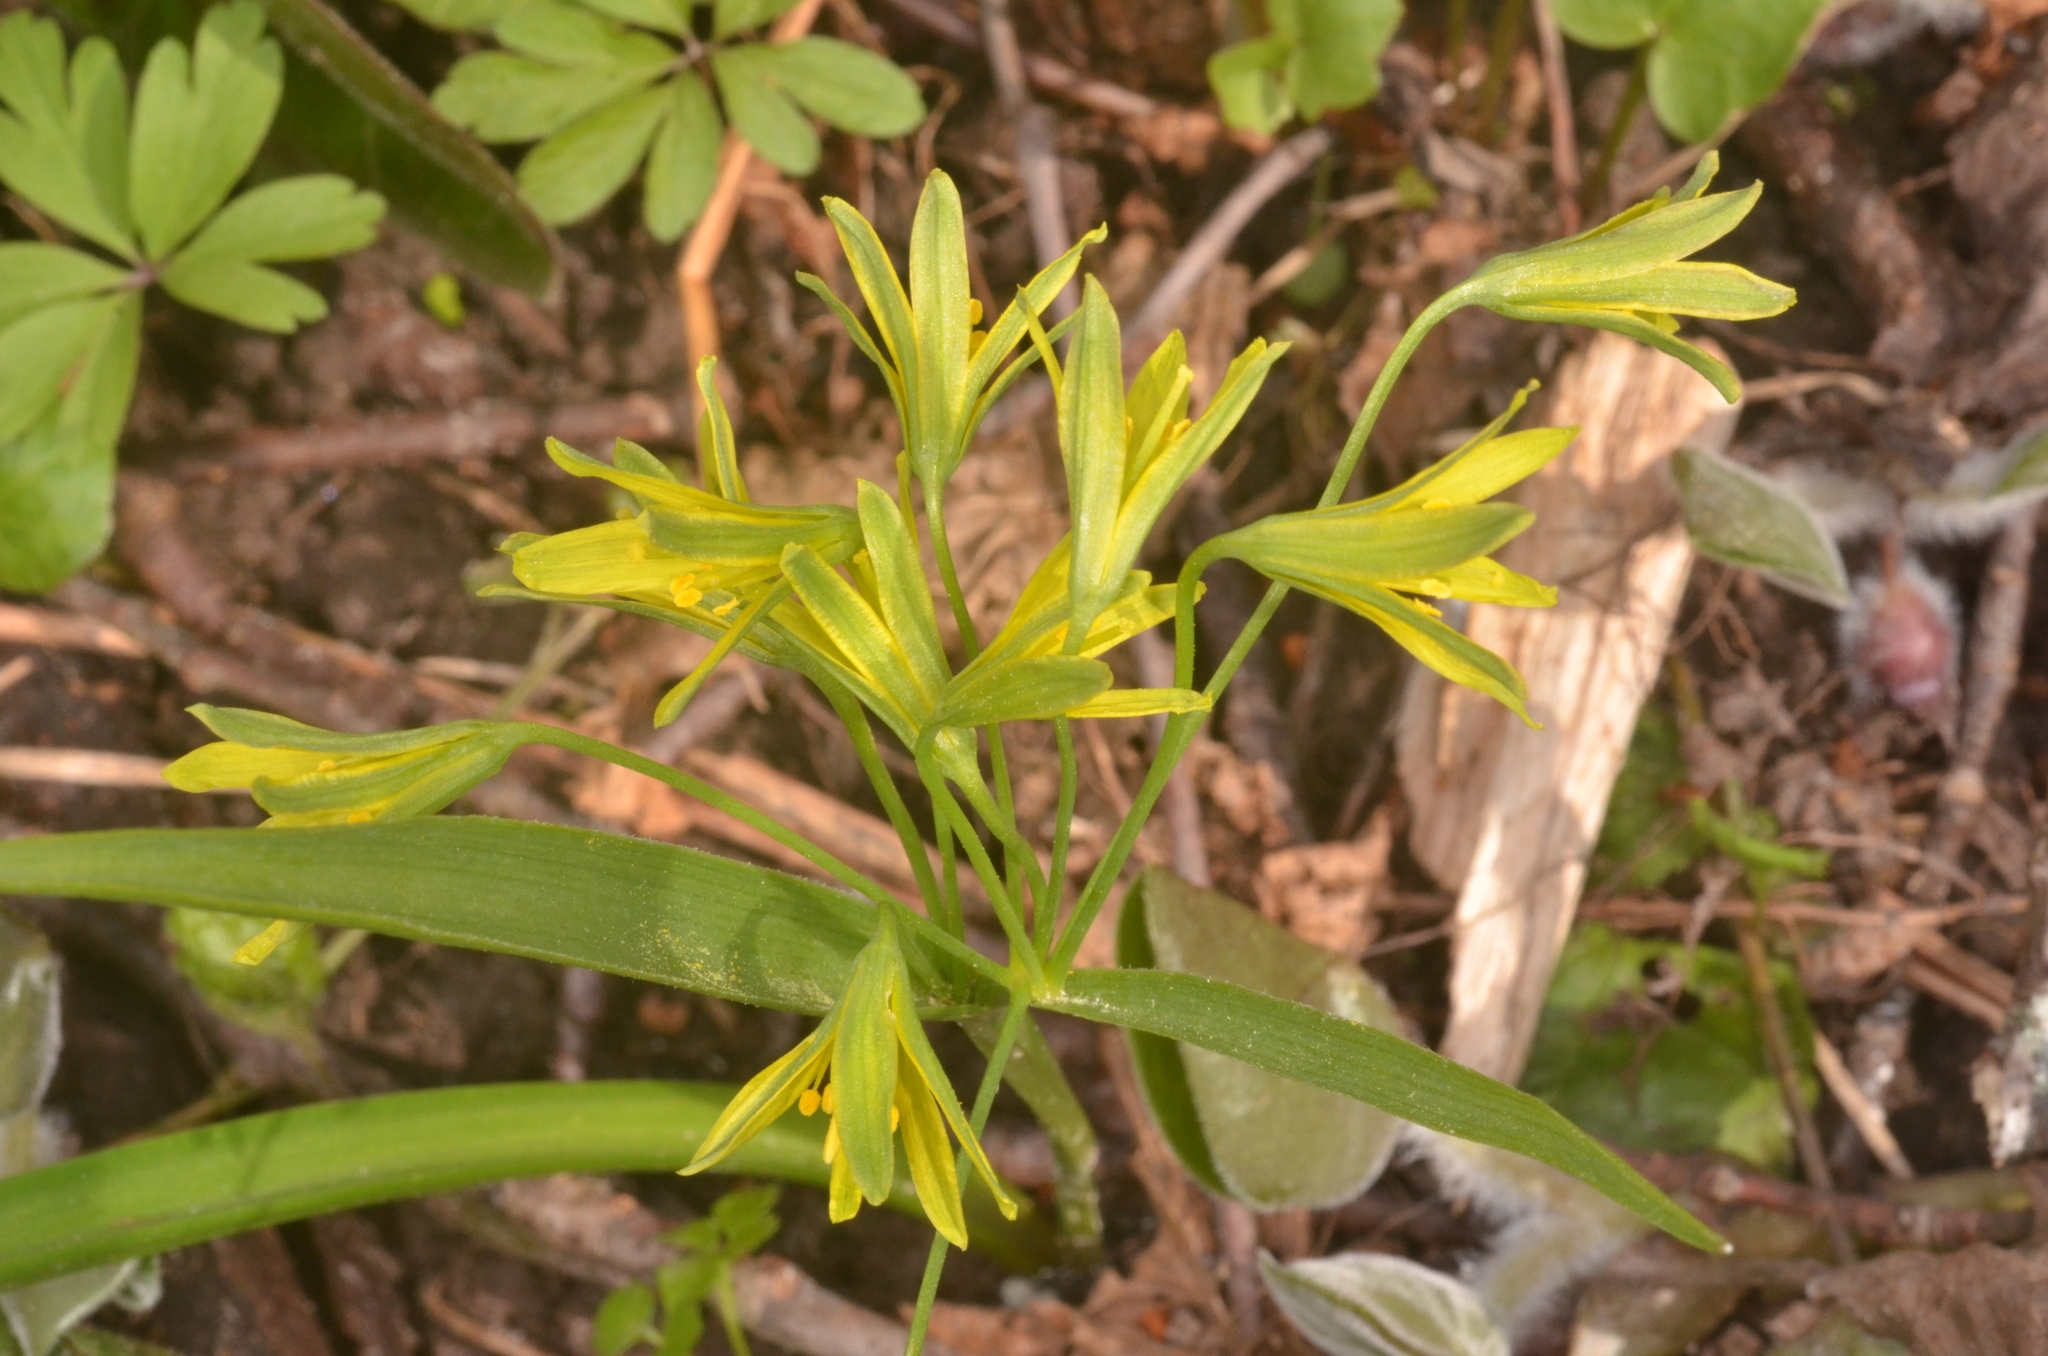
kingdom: Plantae
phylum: Tracheophyta
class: Liliopsida
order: Liliales
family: Liliaceae
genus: Gagea
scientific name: Gagea lutea
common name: Yellow star-of-bethlehem
